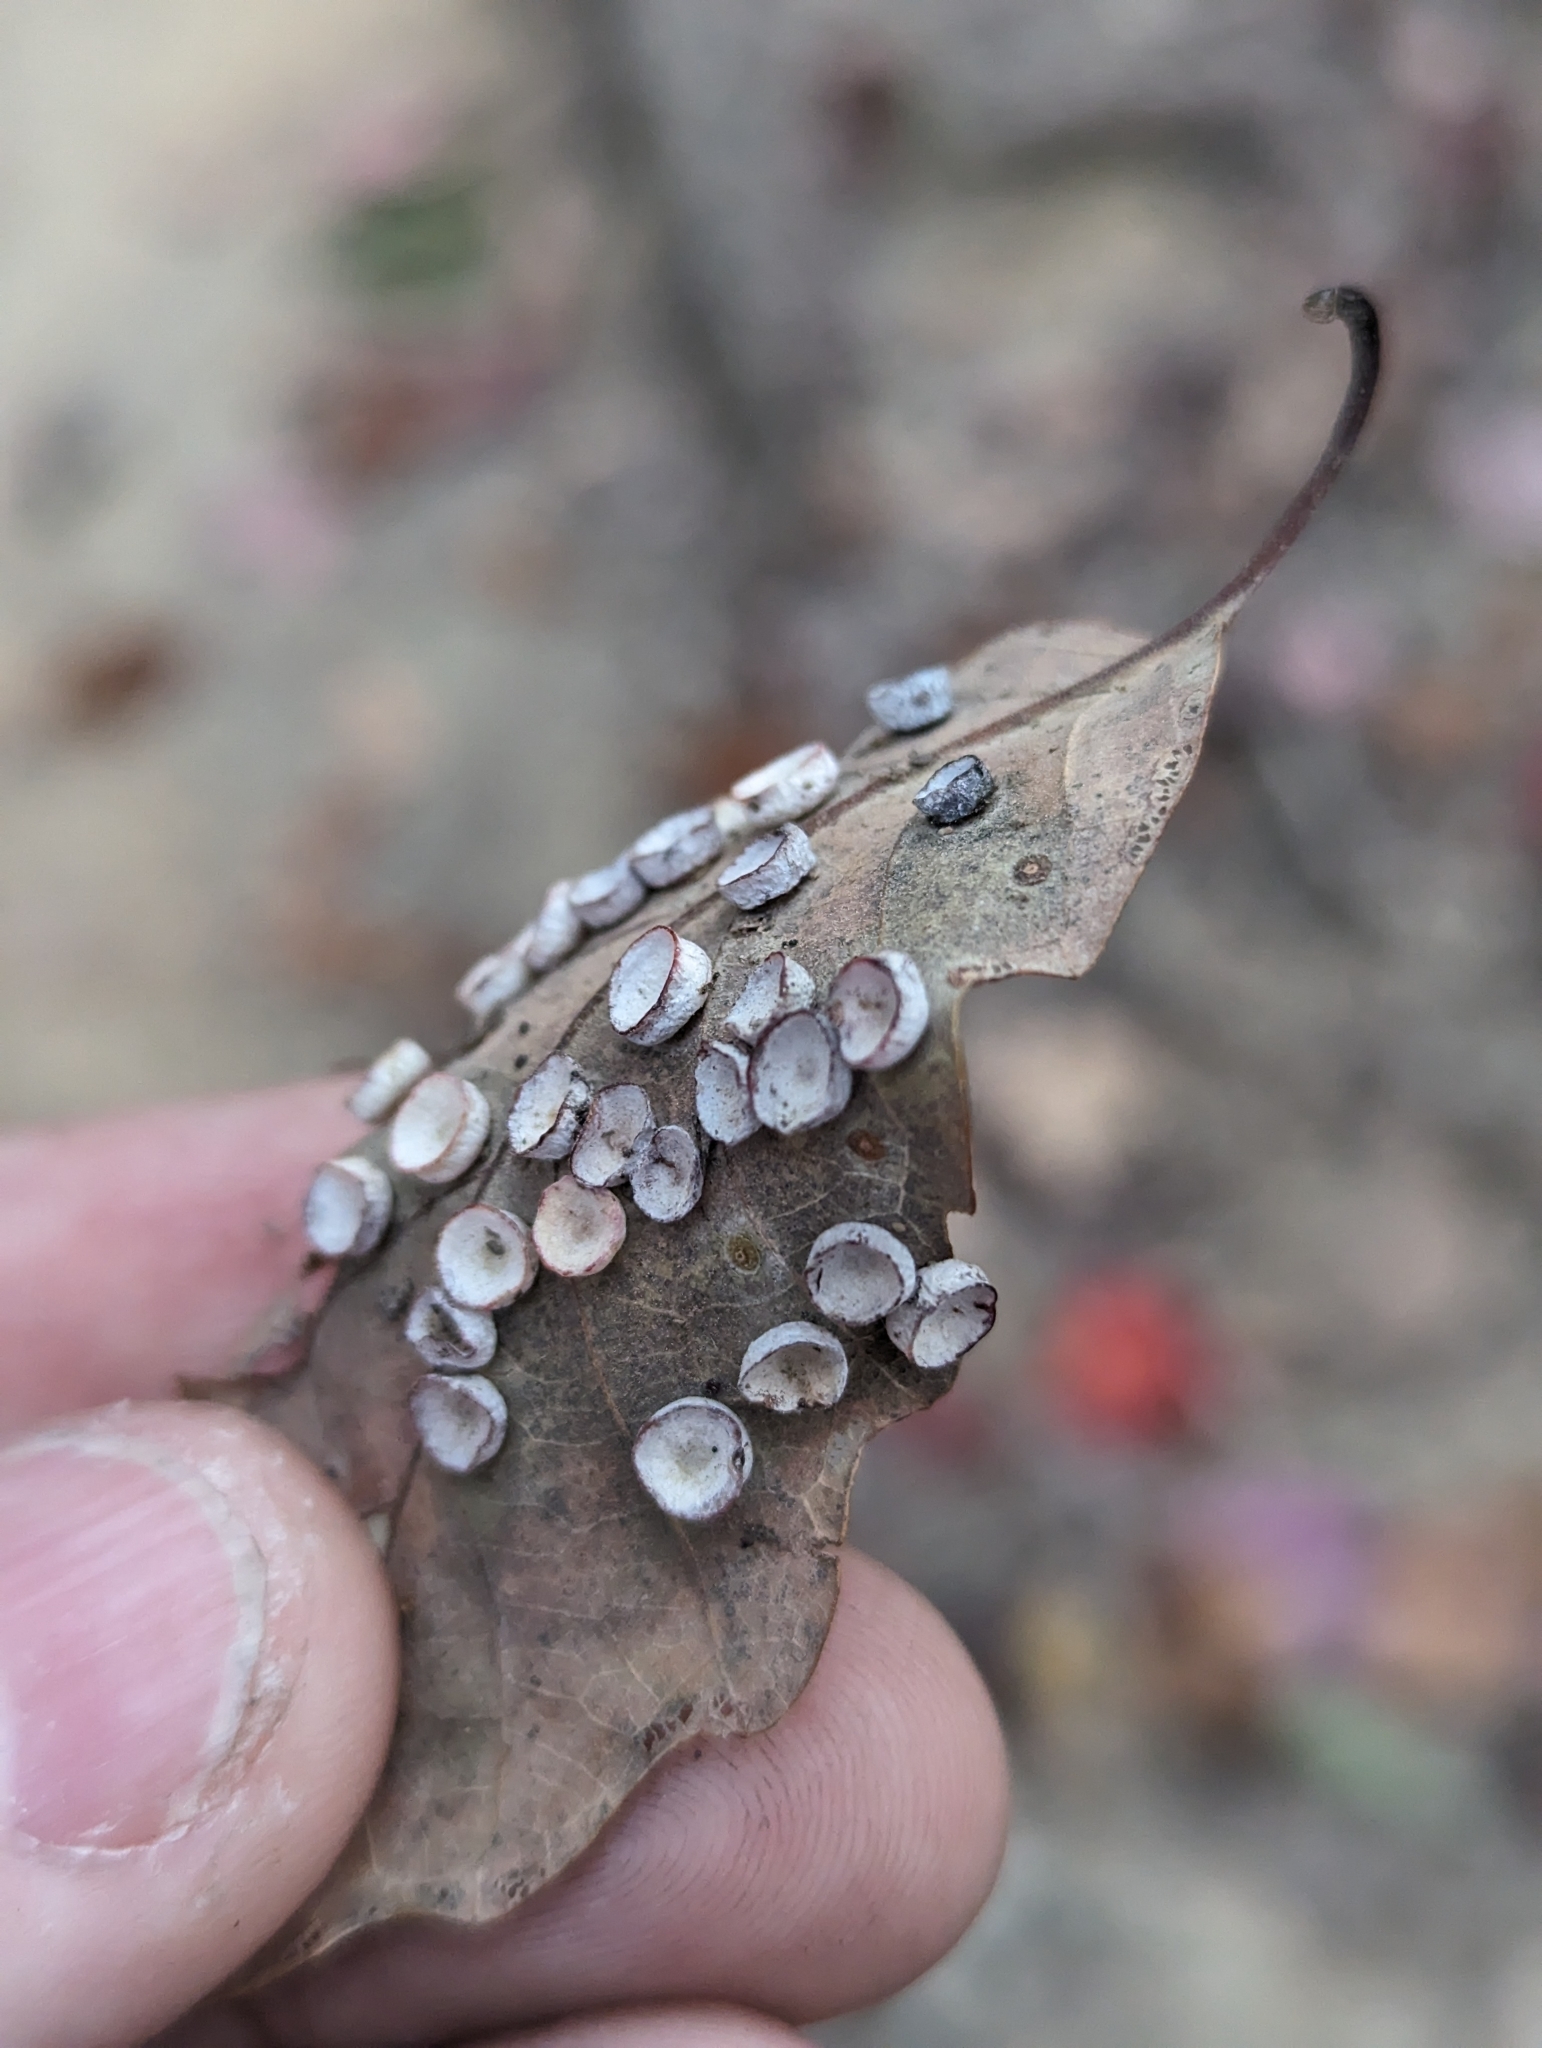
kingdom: Animalia
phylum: Arthropoda
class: Insecta
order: Hymenoptera
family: Cynipidae
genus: Phylloteras
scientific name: Phylloteras poculum
